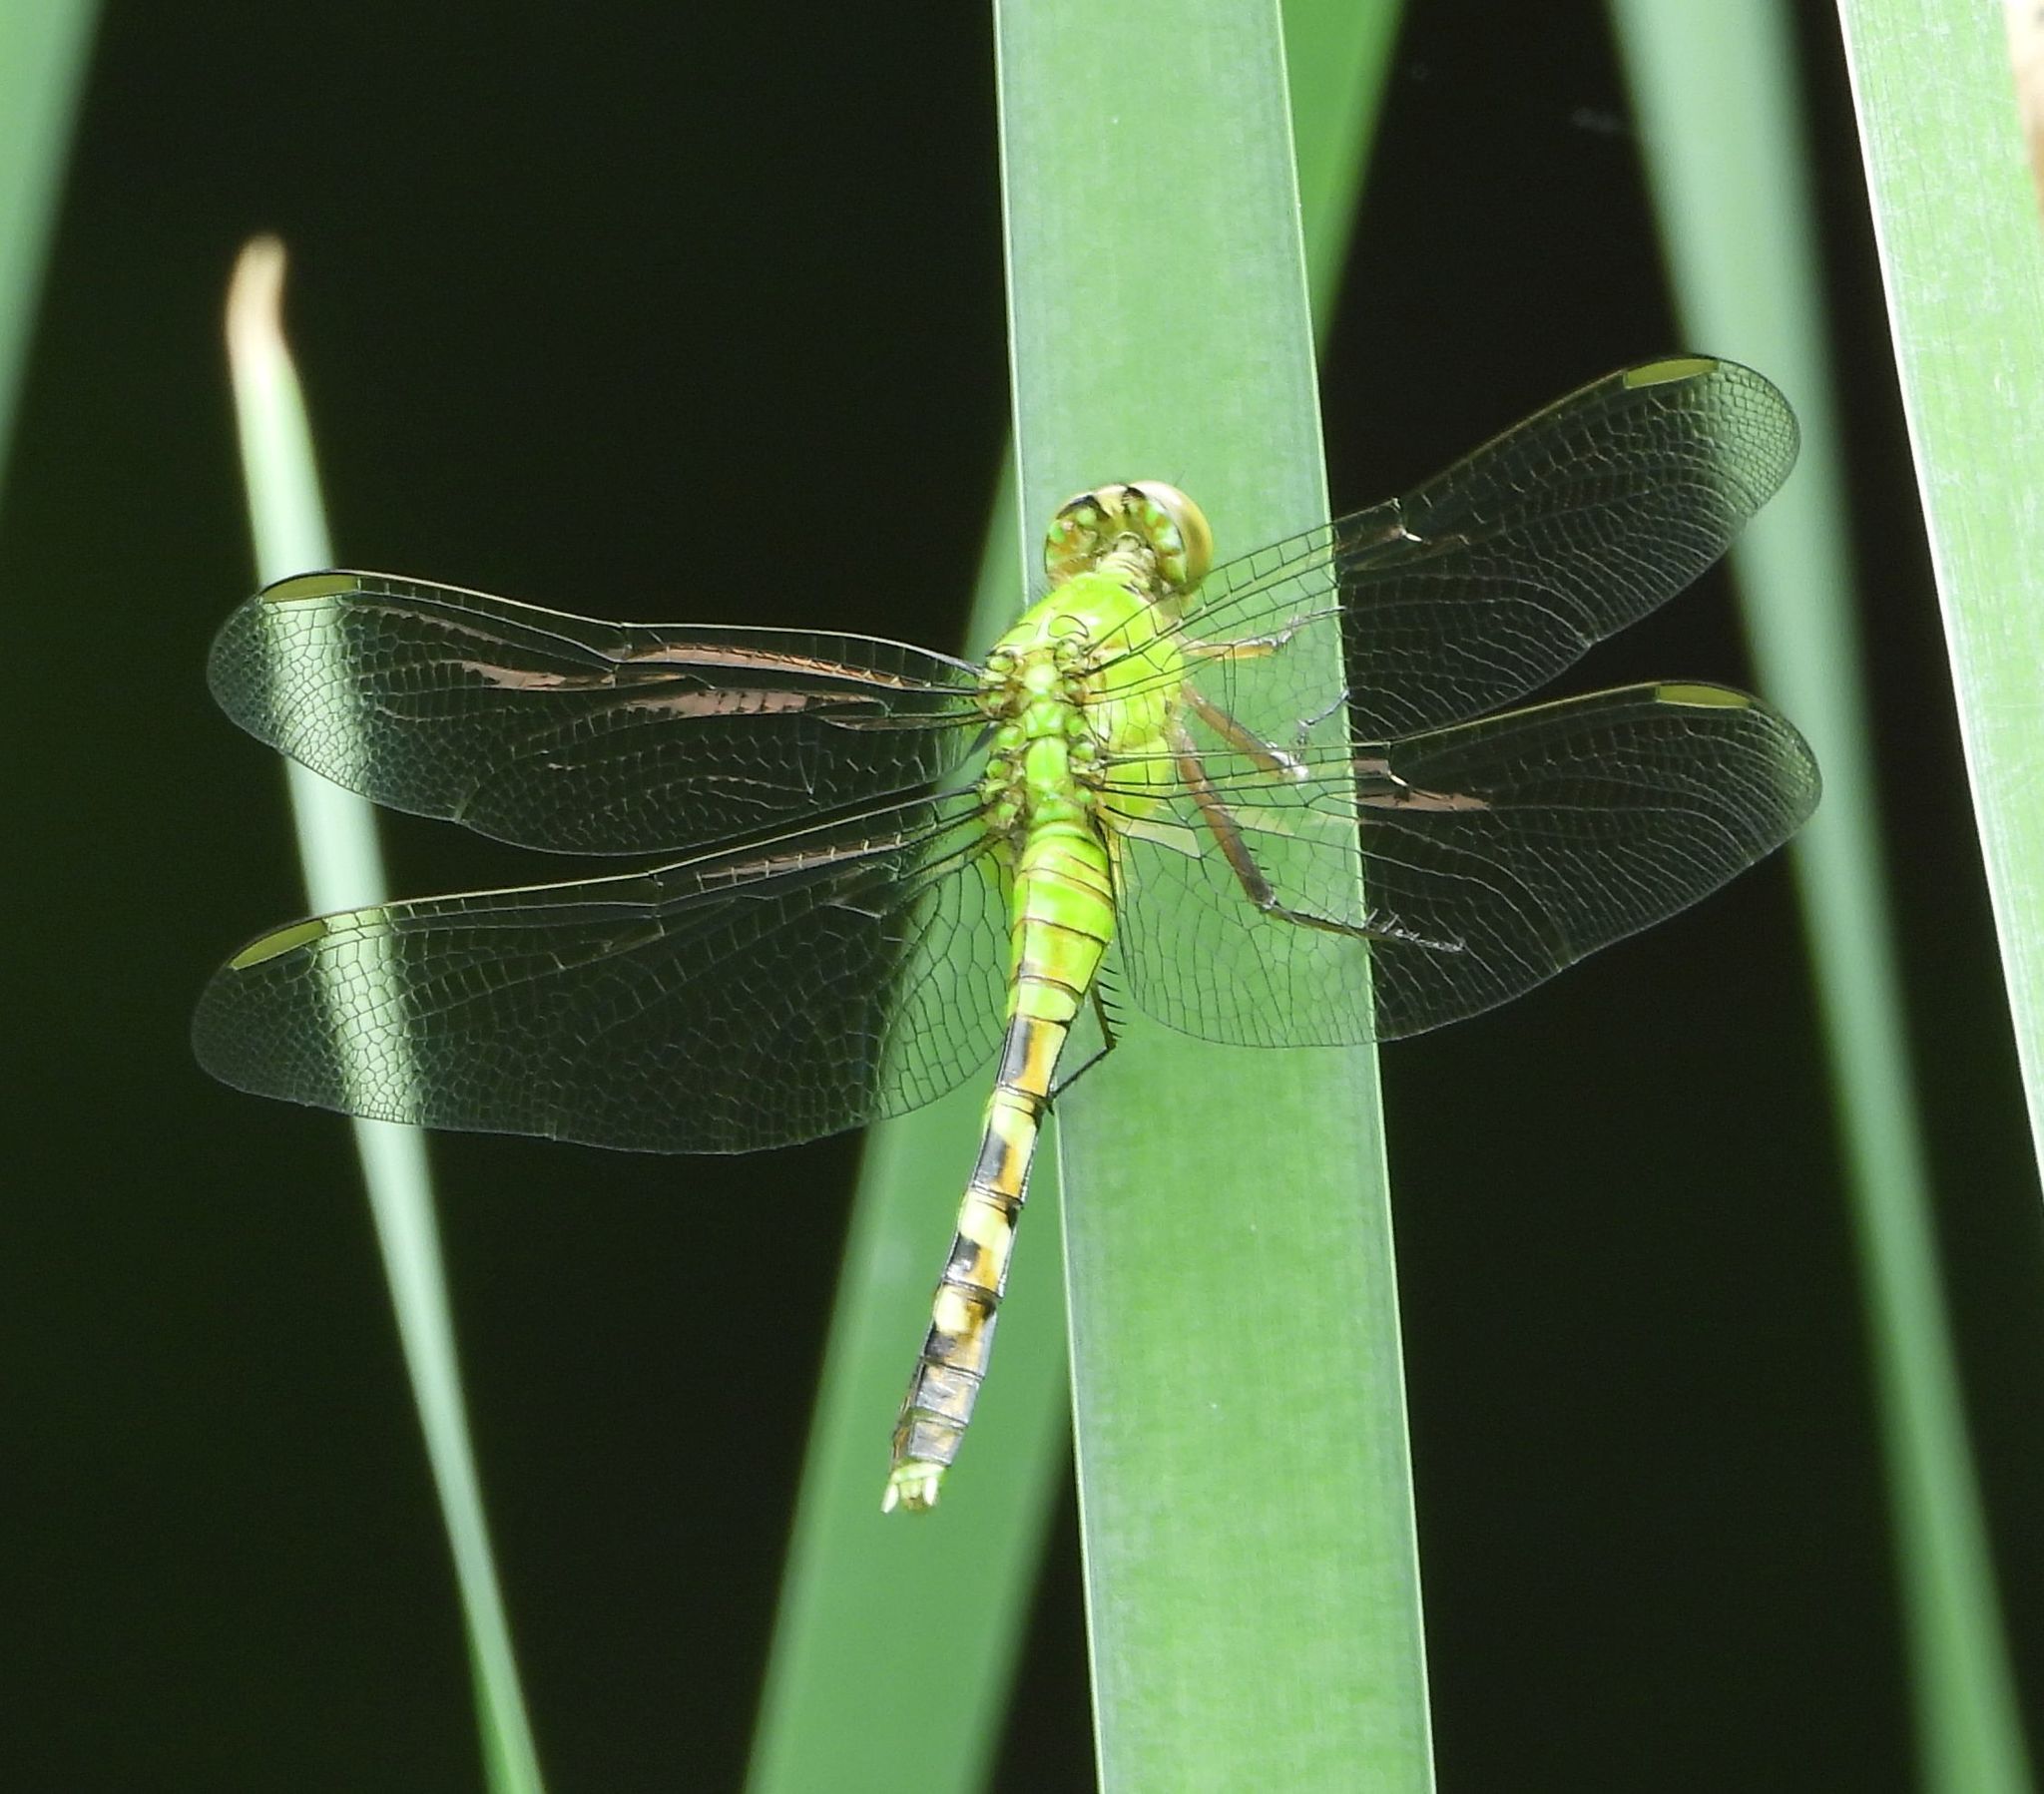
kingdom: Animalia
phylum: Arthropoda
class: Insecta
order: Odonata
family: Libellulidae
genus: Erythemis
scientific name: Erythemis simplicicollis
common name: Eastern pondhawk
